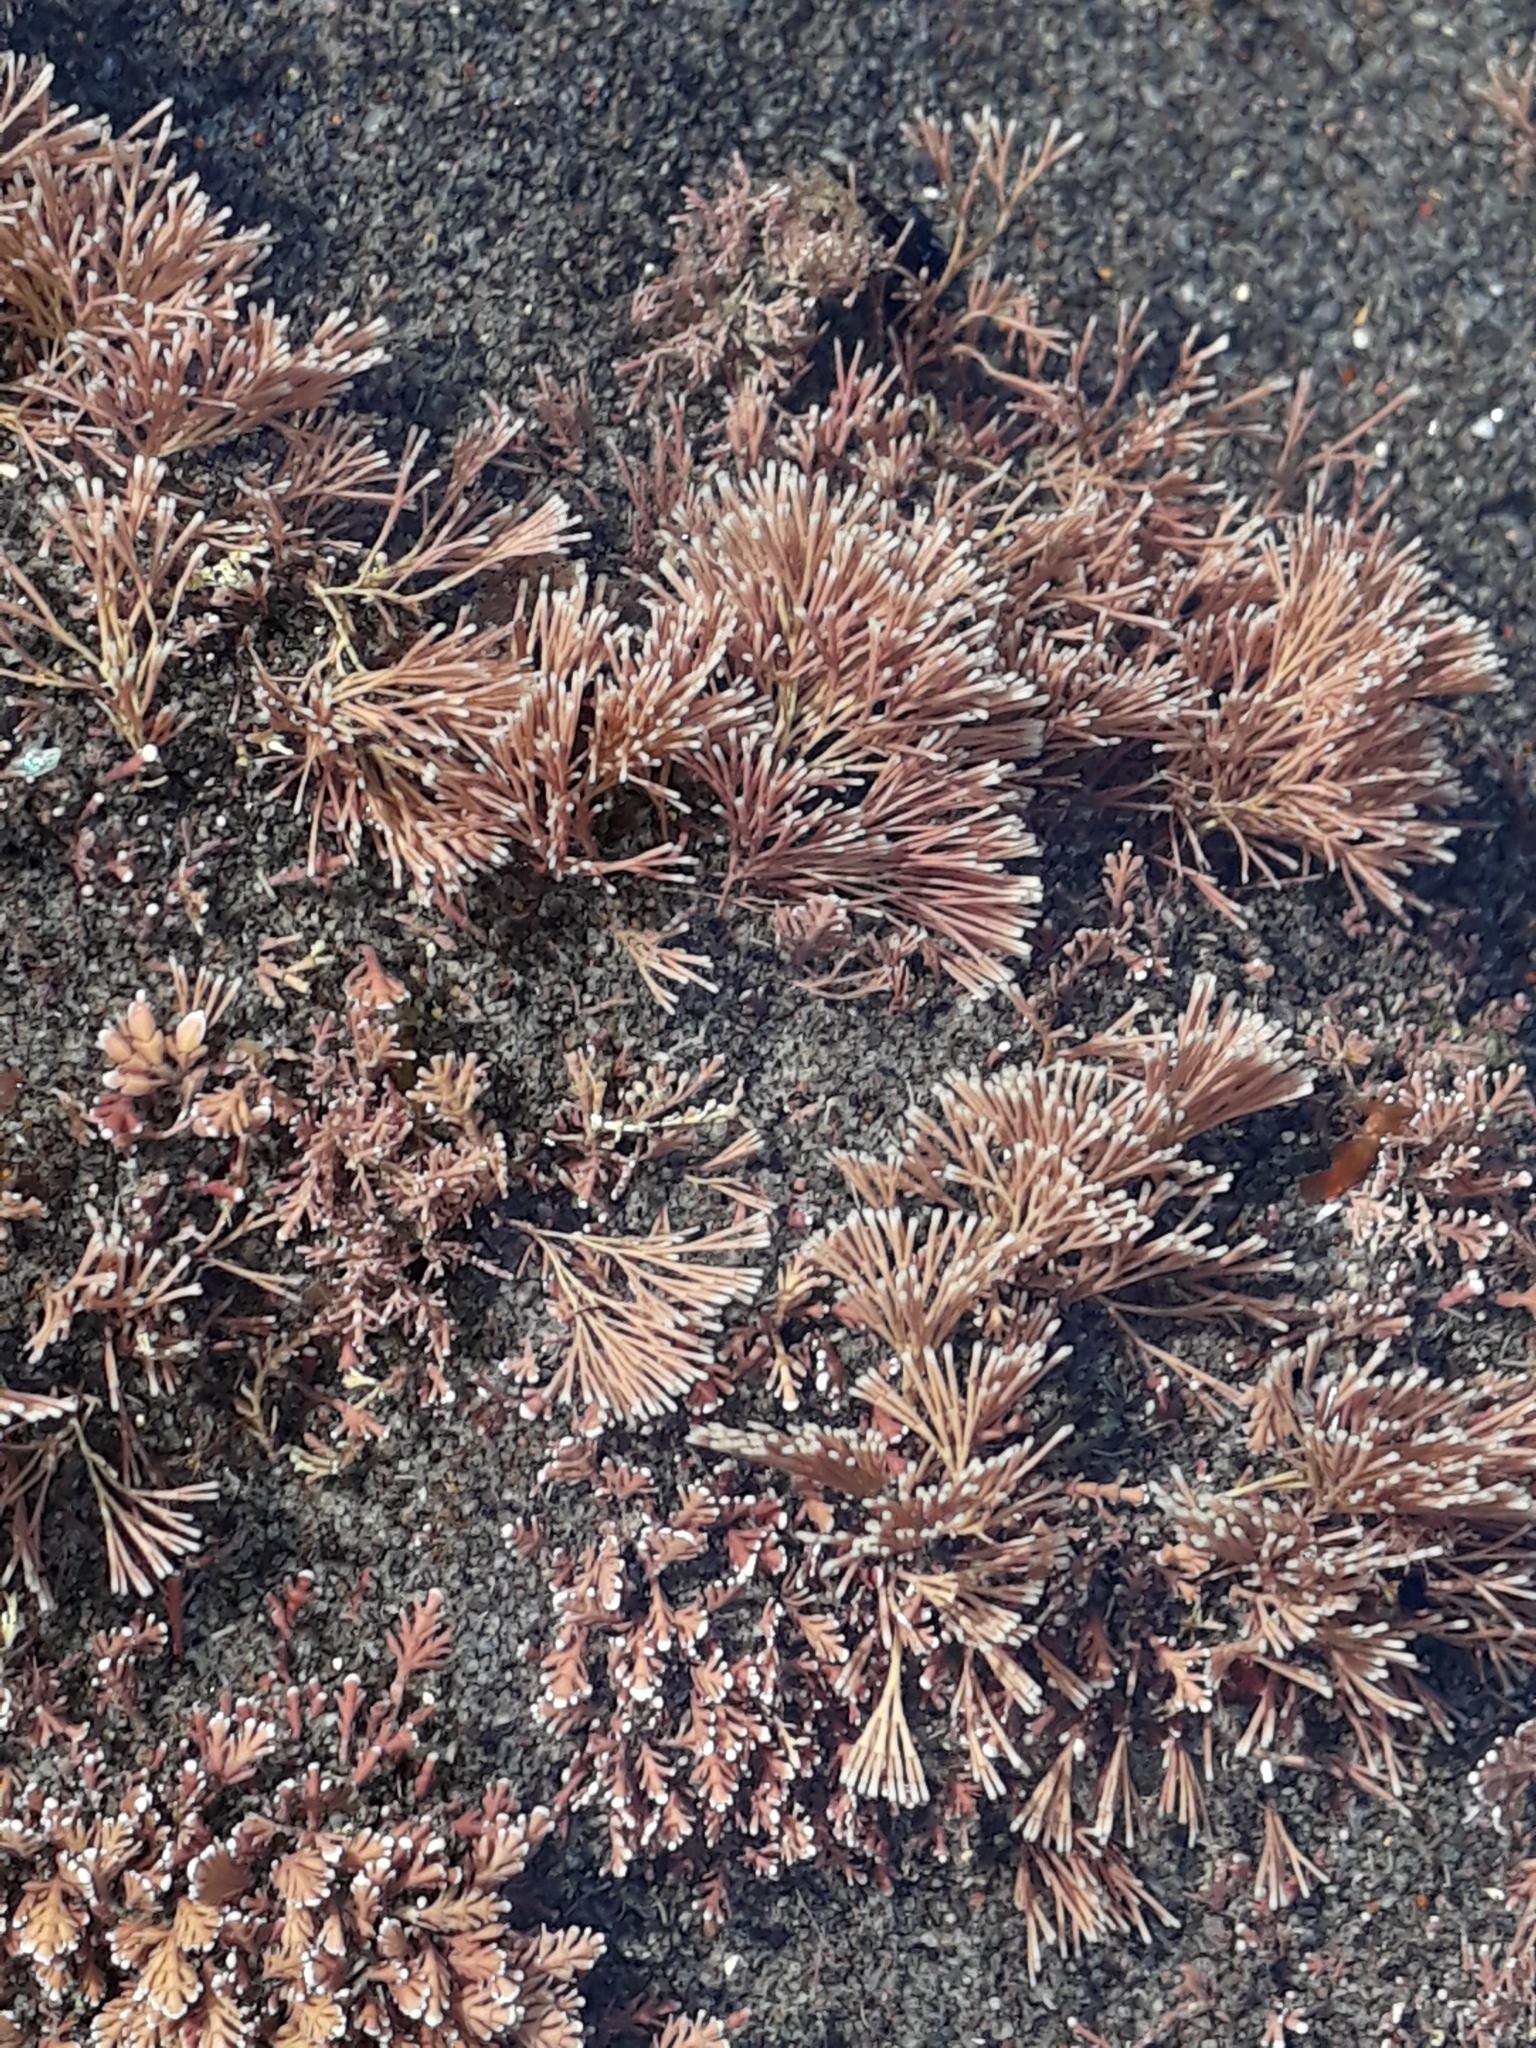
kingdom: Plantae
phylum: Rhodophyta
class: Florideophyceae
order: Corallinales
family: Corallinaceae
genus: Jania
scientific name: Jania
